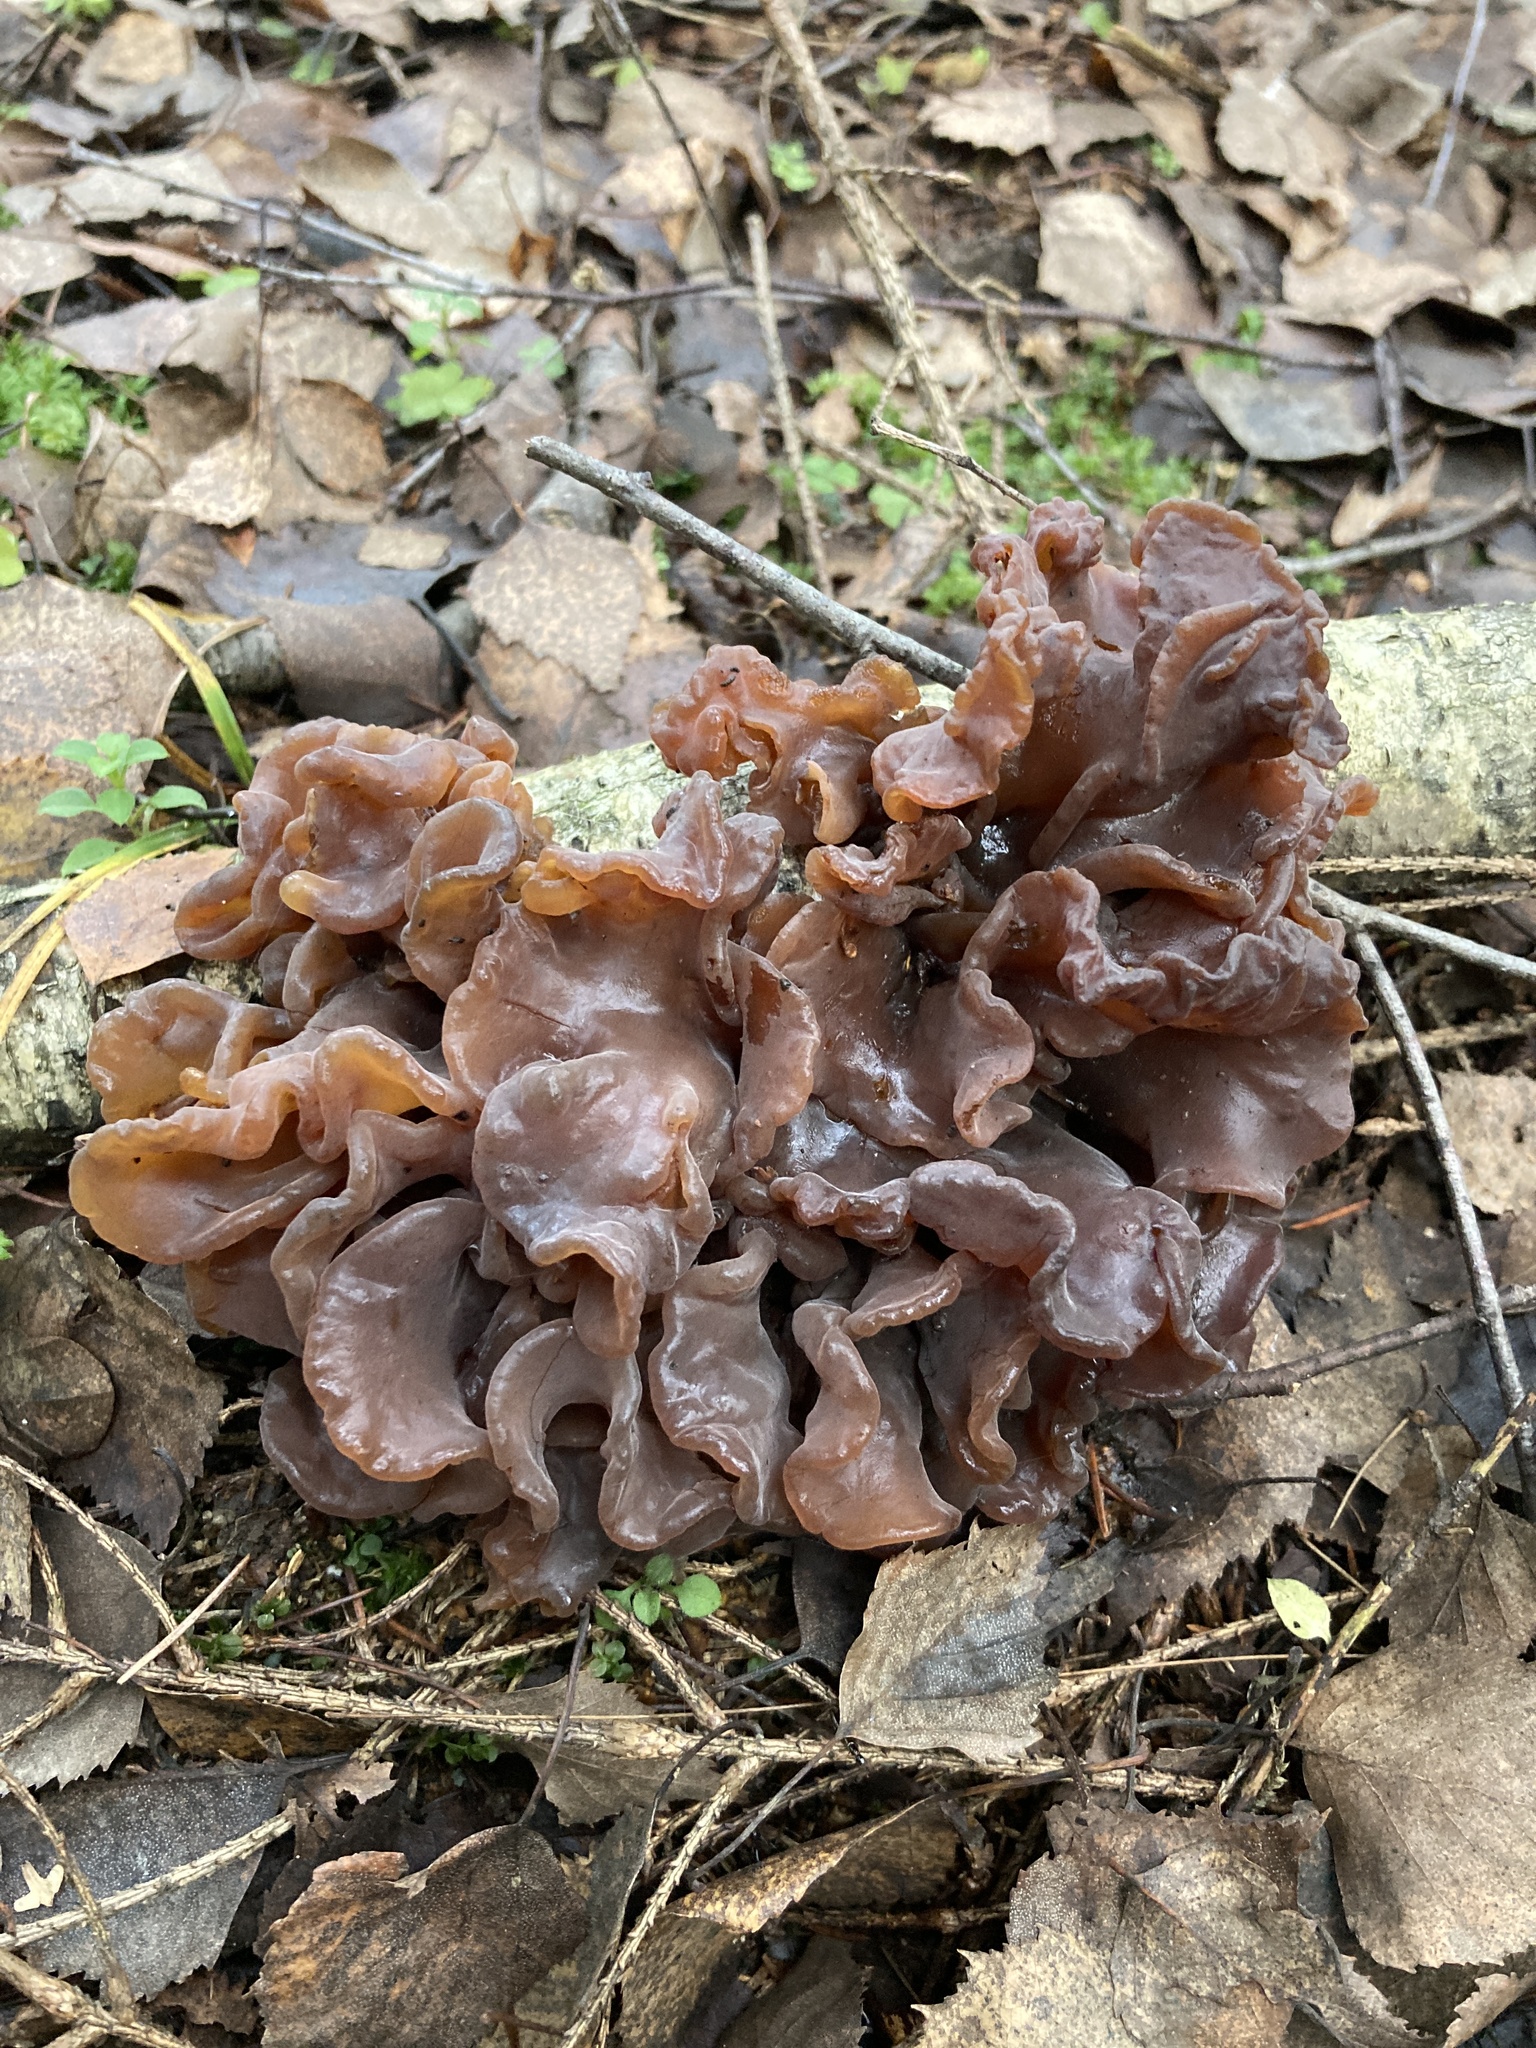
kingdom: Fungi
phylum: Basidiomycota
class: Tremellomycetes
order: Tremellales
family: Tremellaceae
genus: Phaeotremella
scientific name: Phaeotremella frondosa
